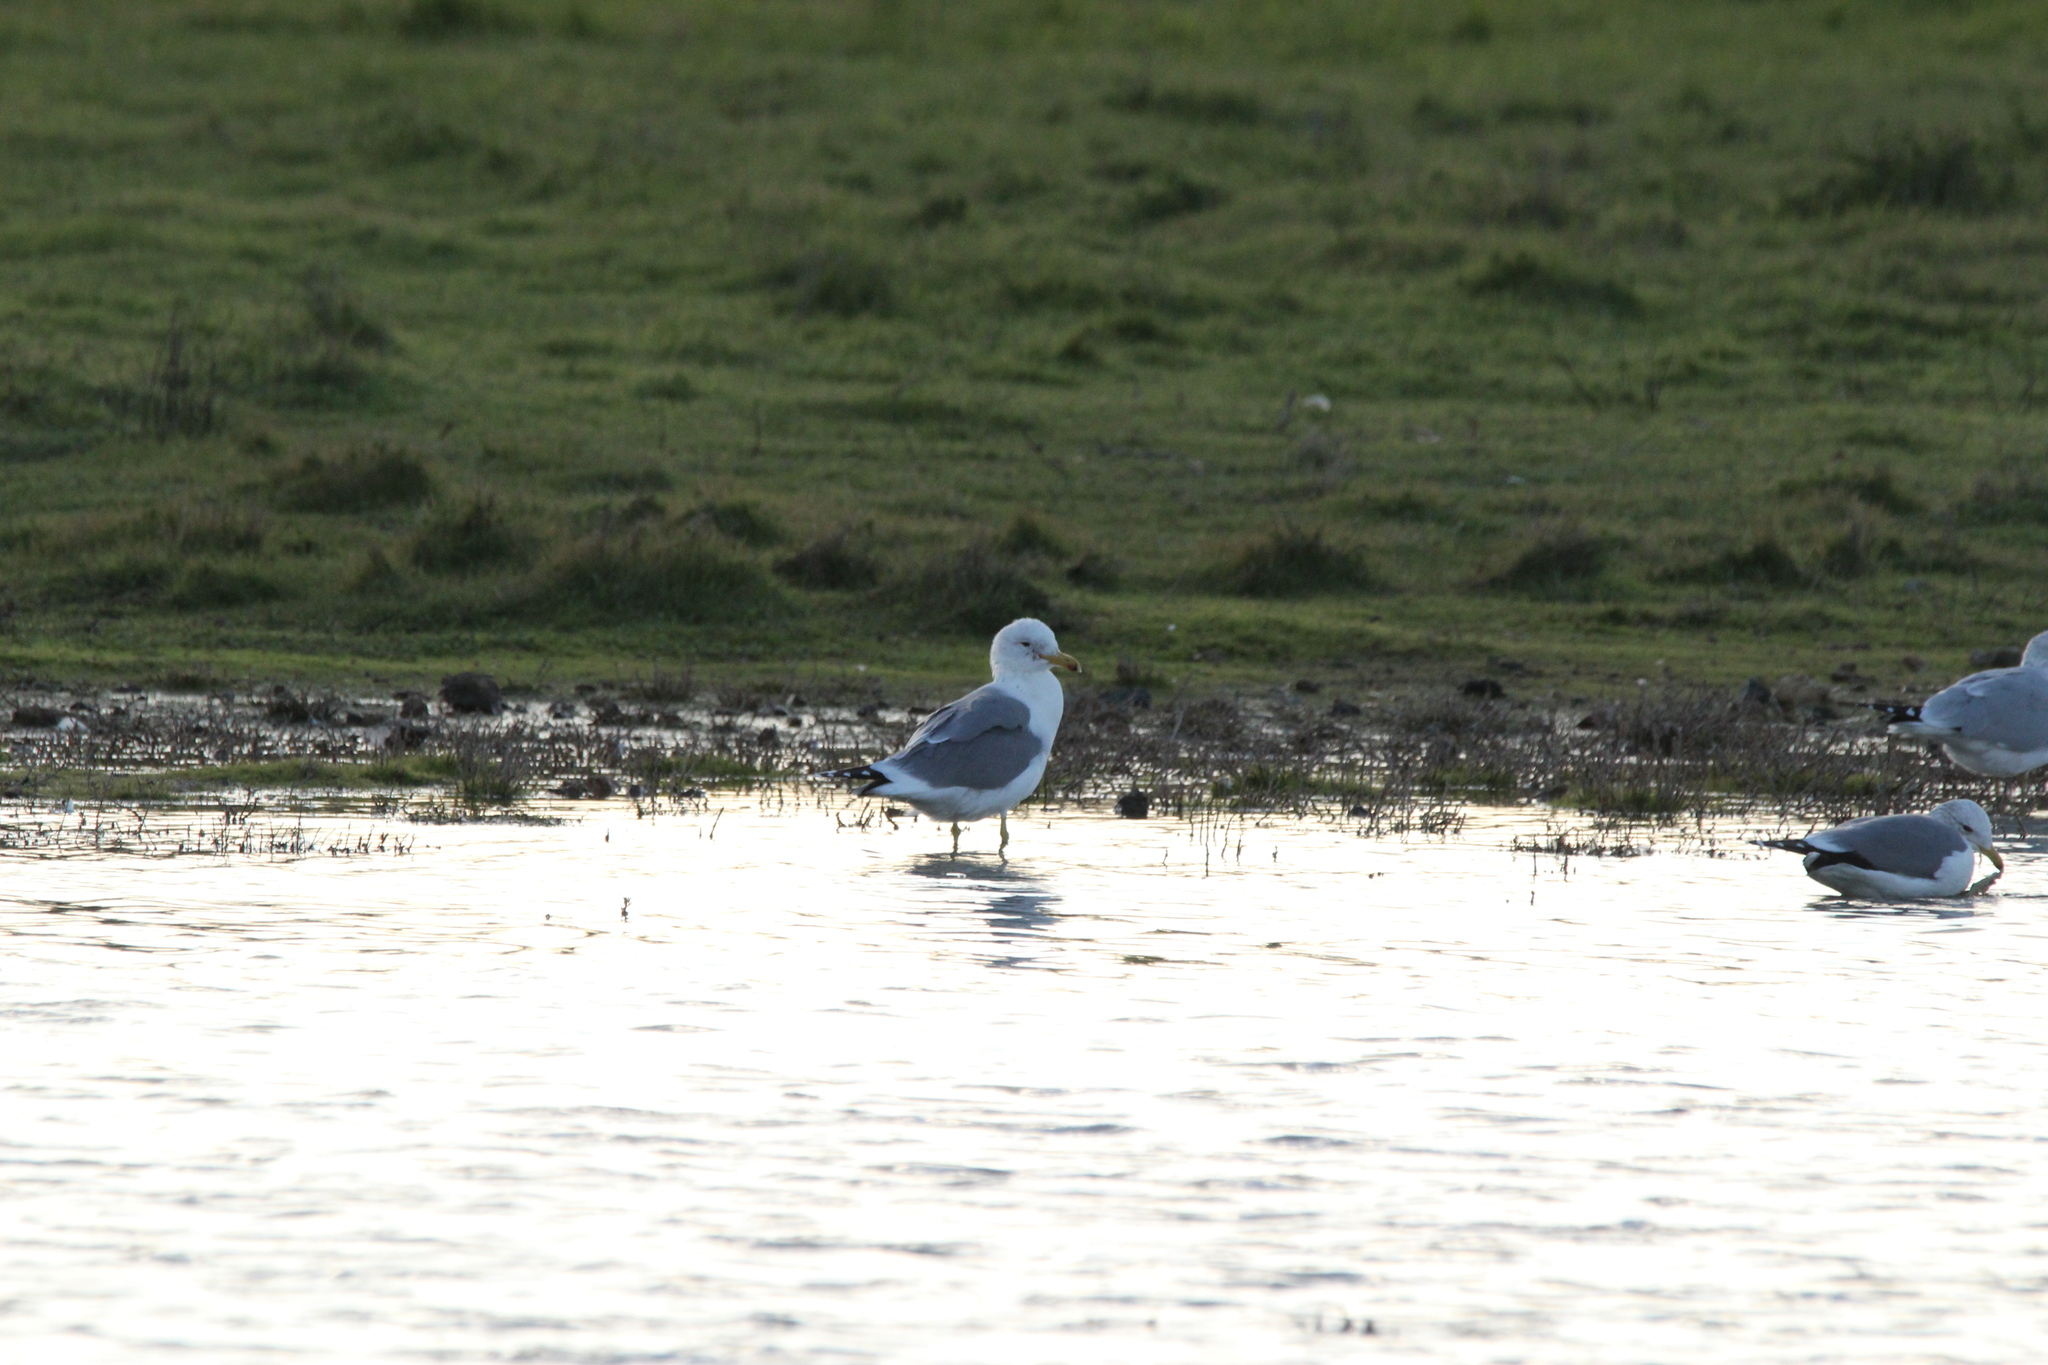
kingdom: Animalia
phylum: Chordata
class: Aves
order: Charadriiformes
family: Laridae
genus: Larus
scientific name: Larus californicus
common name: California gull
